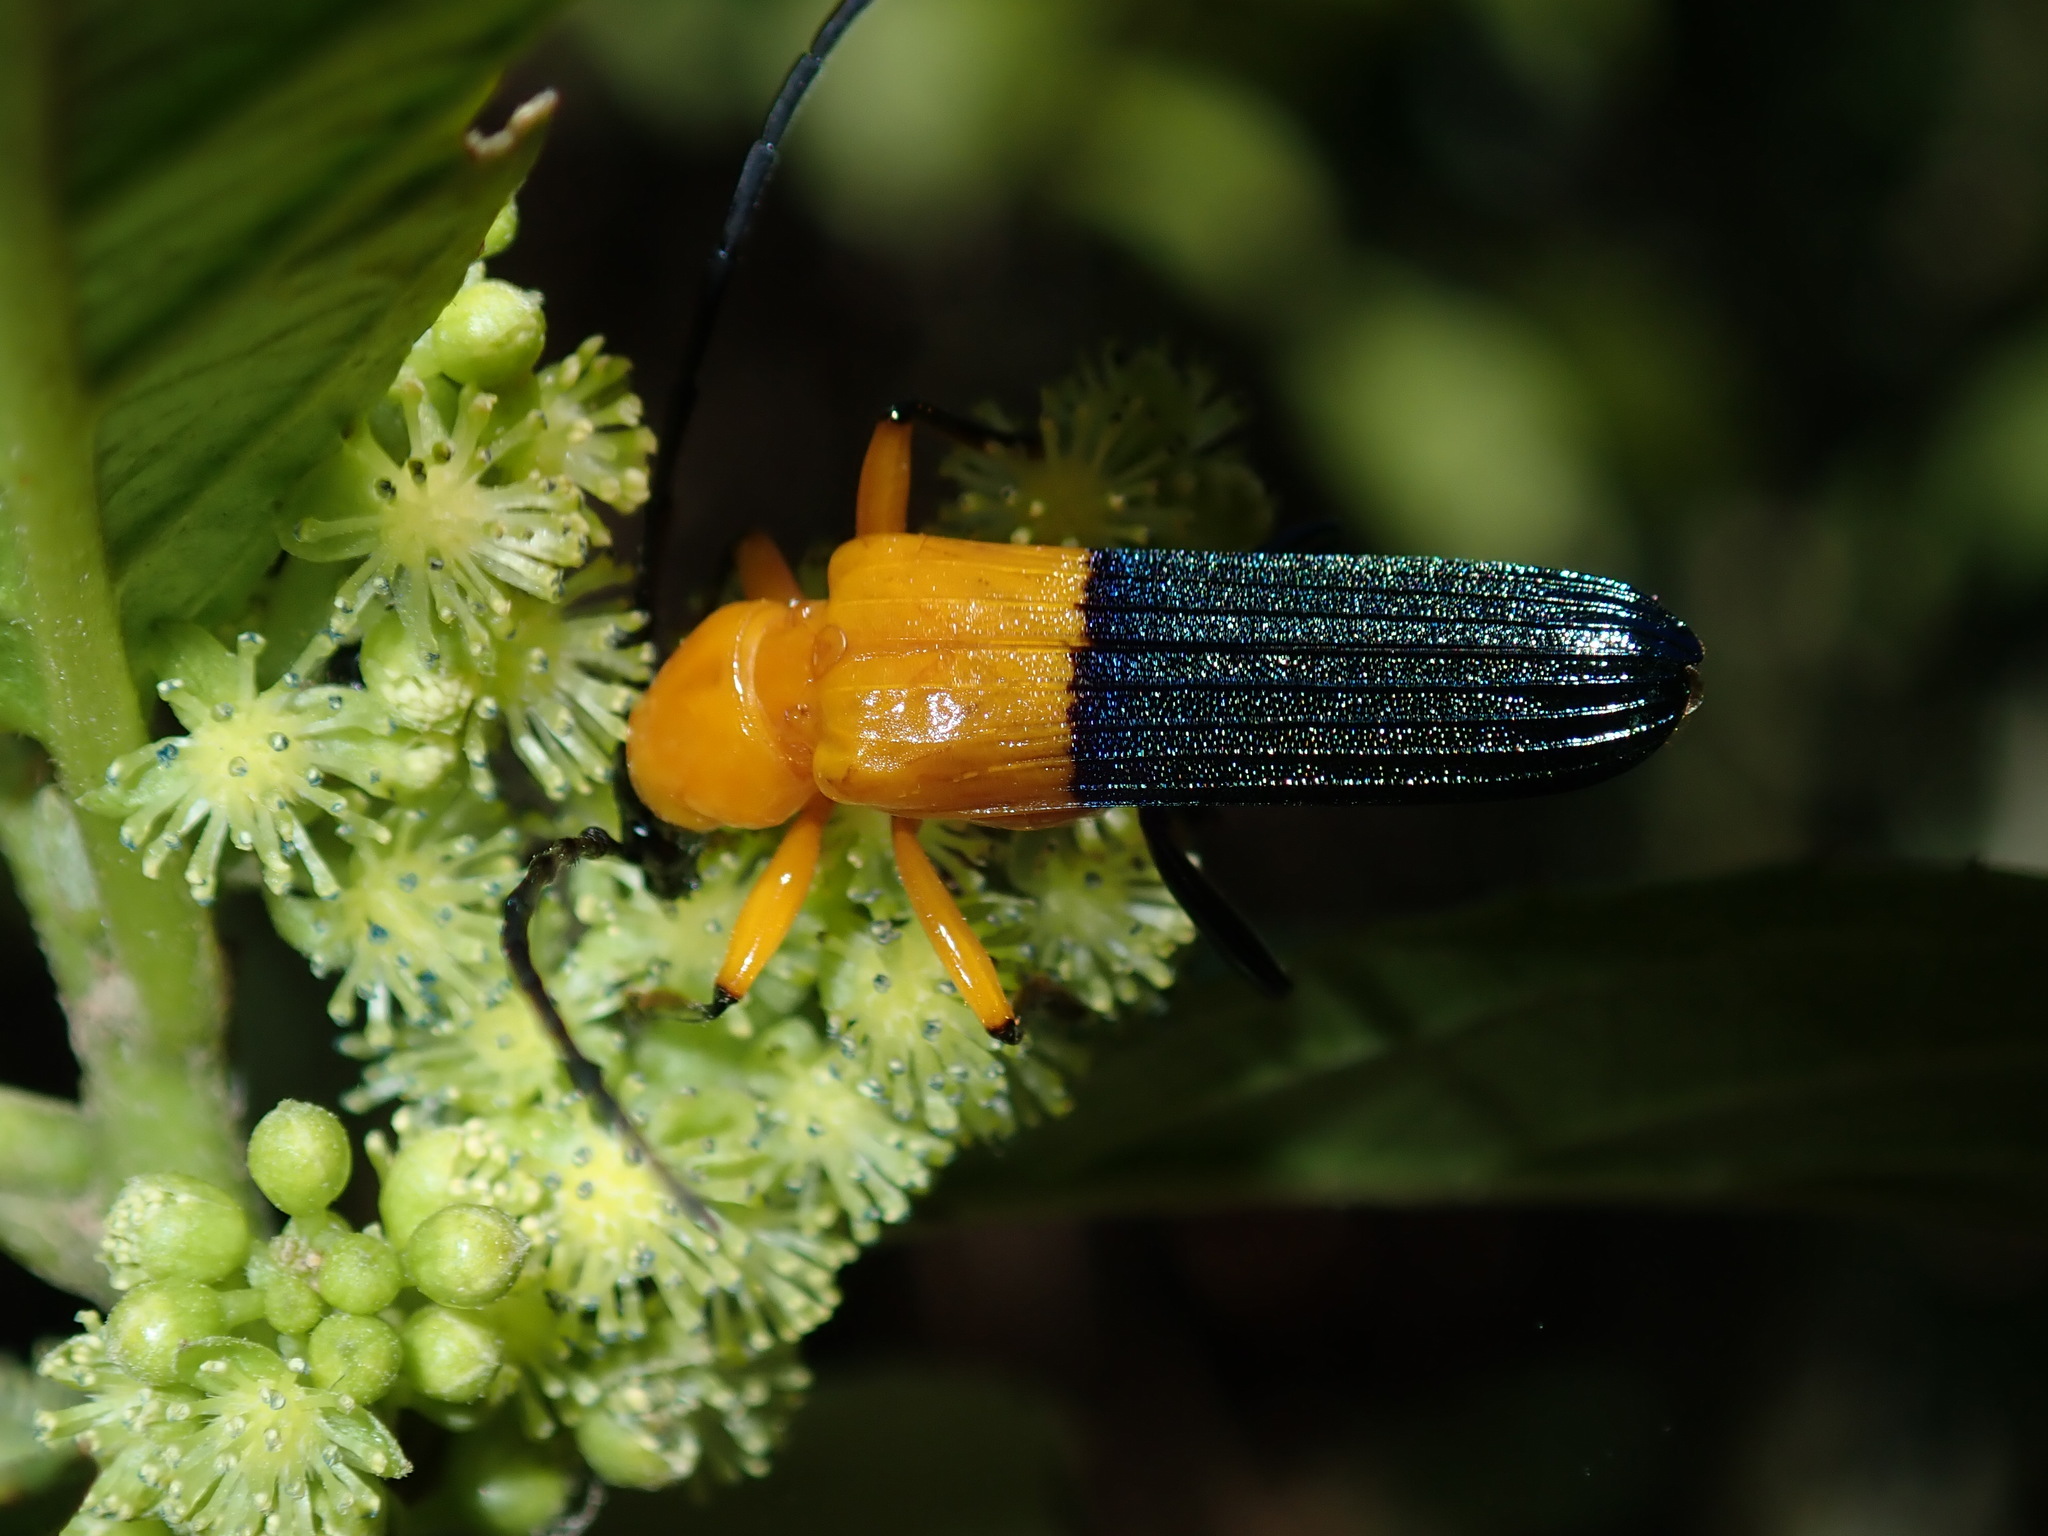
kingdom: Animalia
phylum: Arthropoda
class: Insecta
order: Coleoptera
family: Cerambycidae
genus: Tropocalymma
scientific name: Tropocalymma dimidiata
